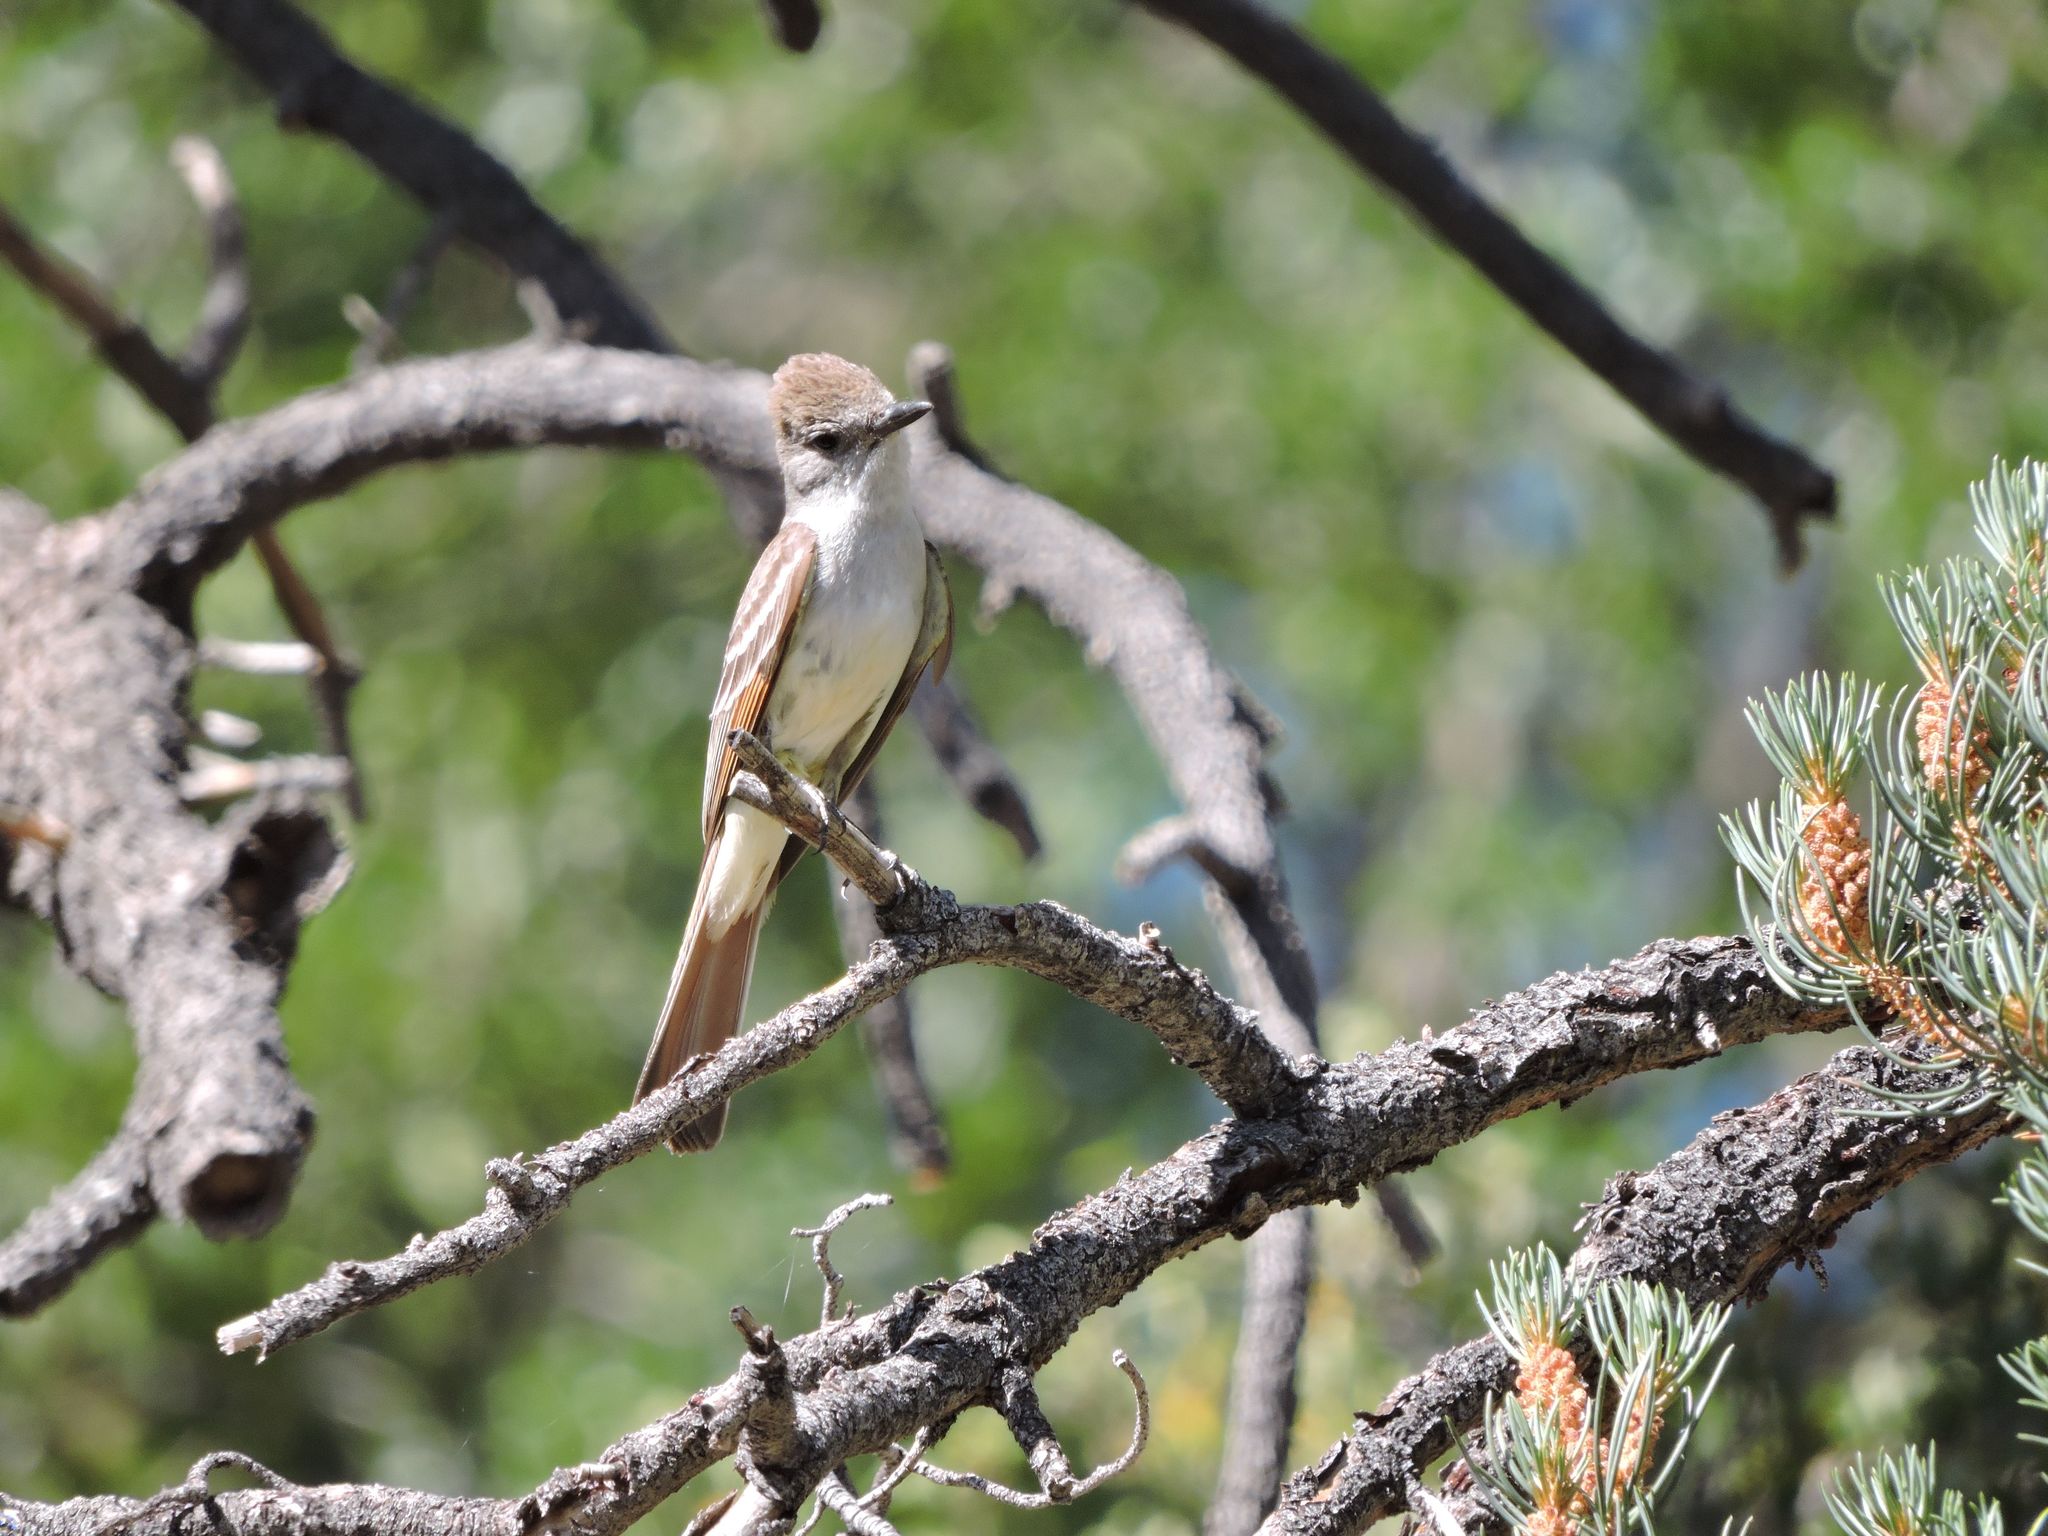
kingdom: Animalia
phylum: Chordata
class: Aves
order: Passeriformes
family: Tyrannidae
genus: Myiarchus
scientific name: Myiarchus cinerascens
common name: Ash-throated flycatcher
